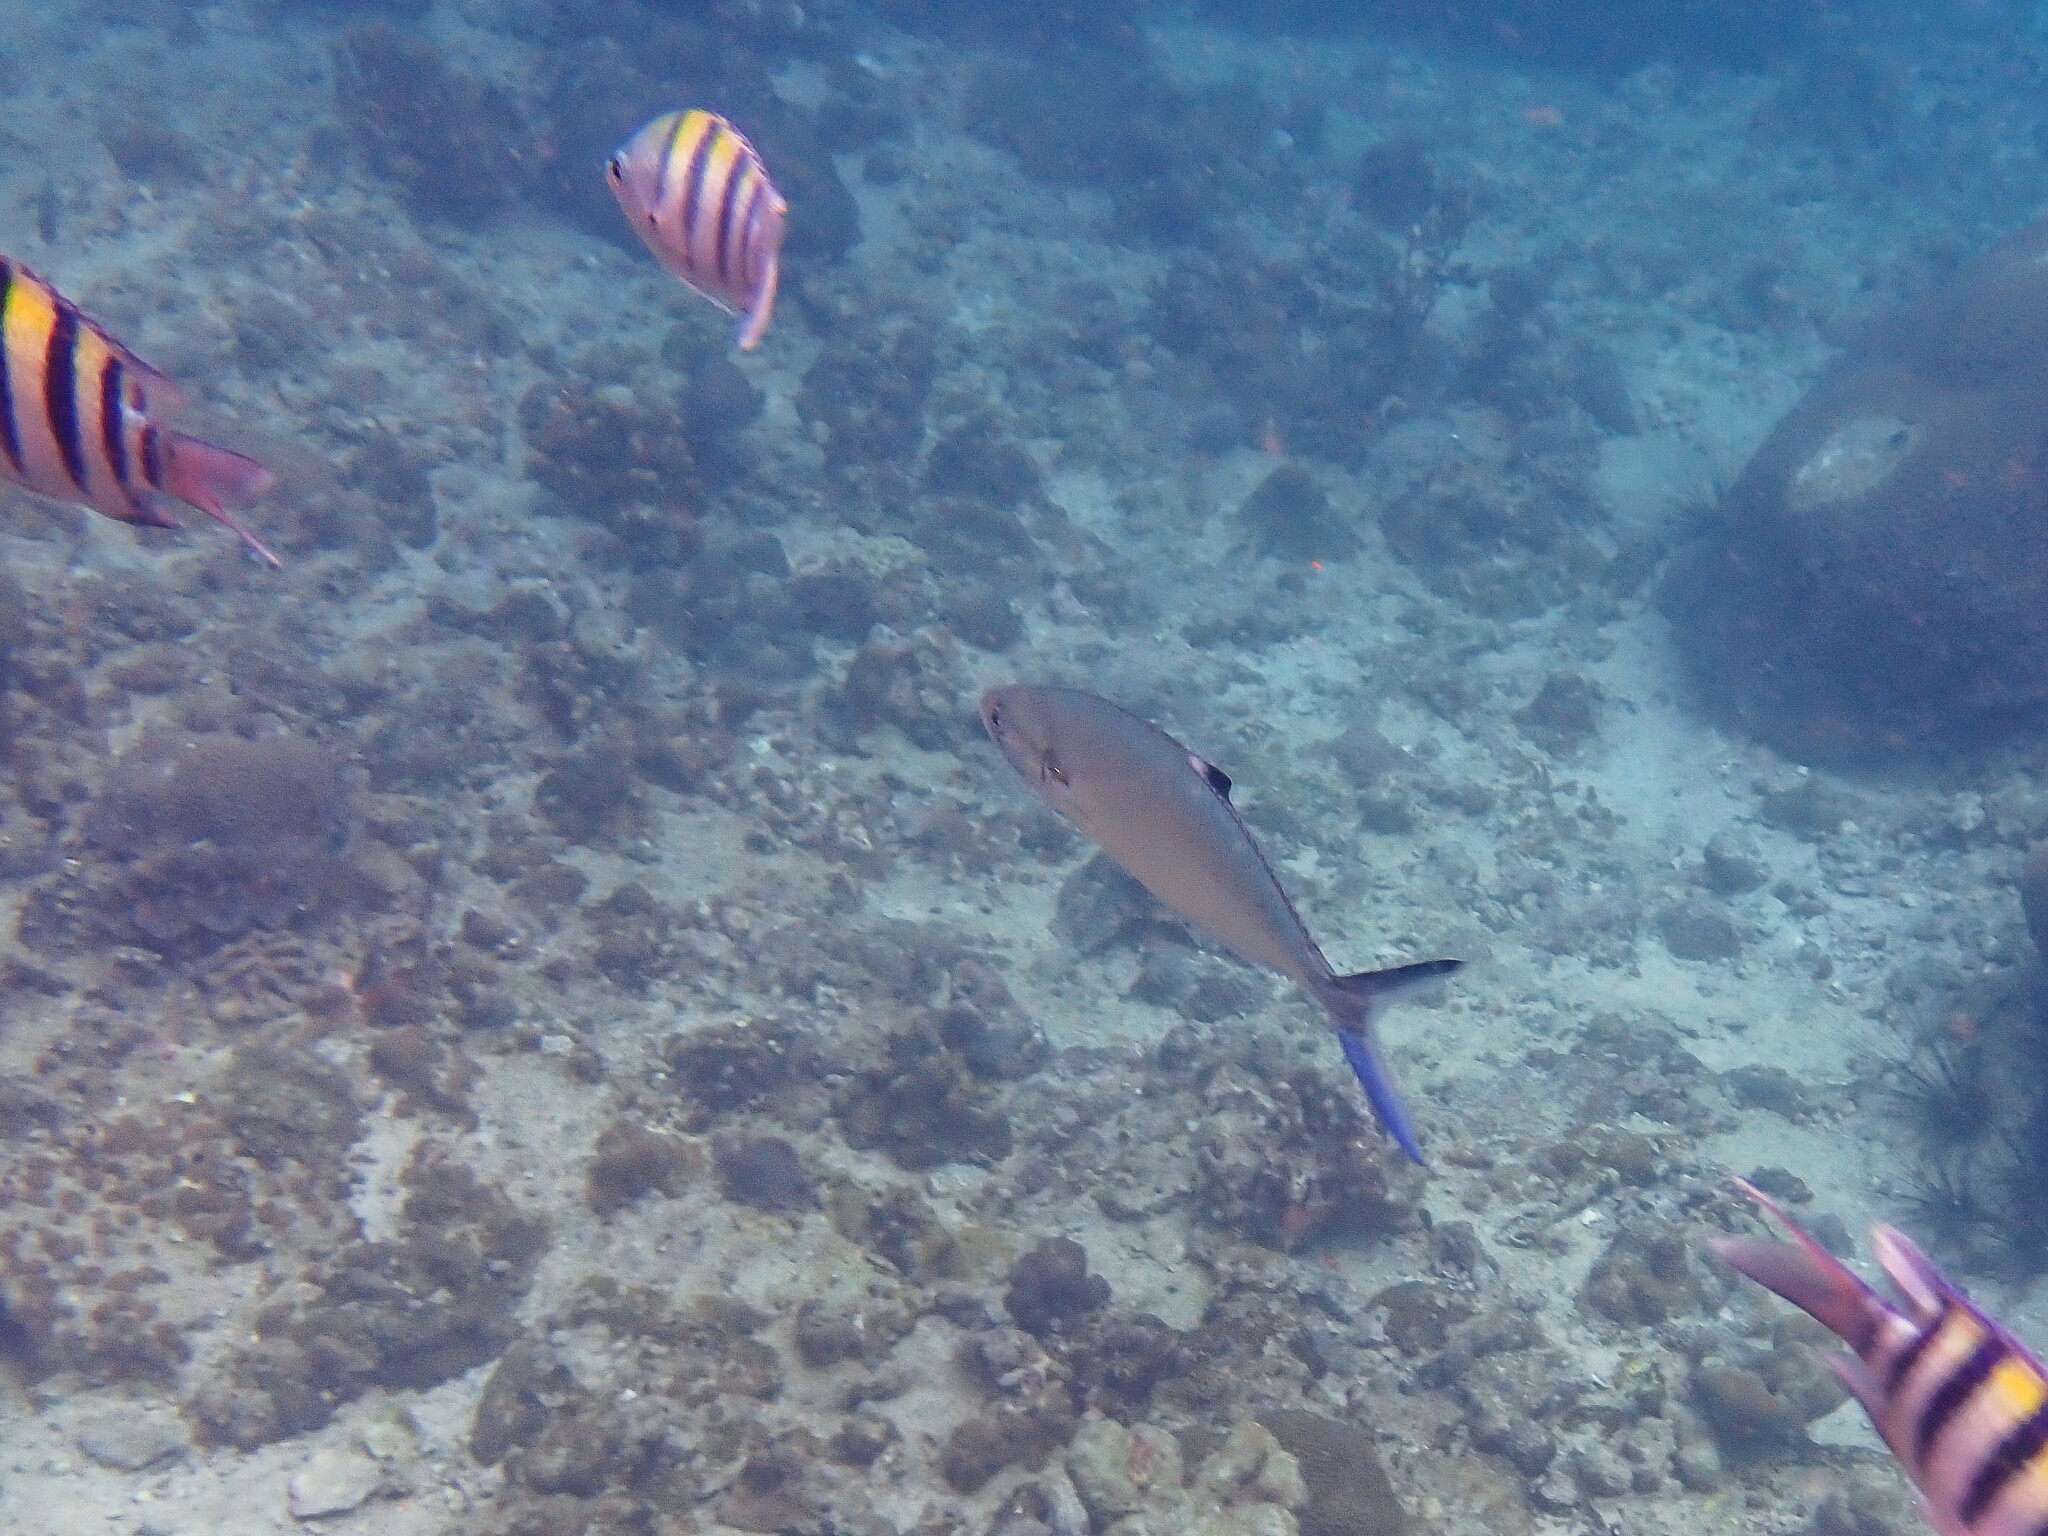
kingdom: Animalia
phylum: Chordata
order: Perciformes
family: Carangidae
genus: Scomberoides
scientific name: Scomberoides lysan
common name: Doublespotted queenfish
